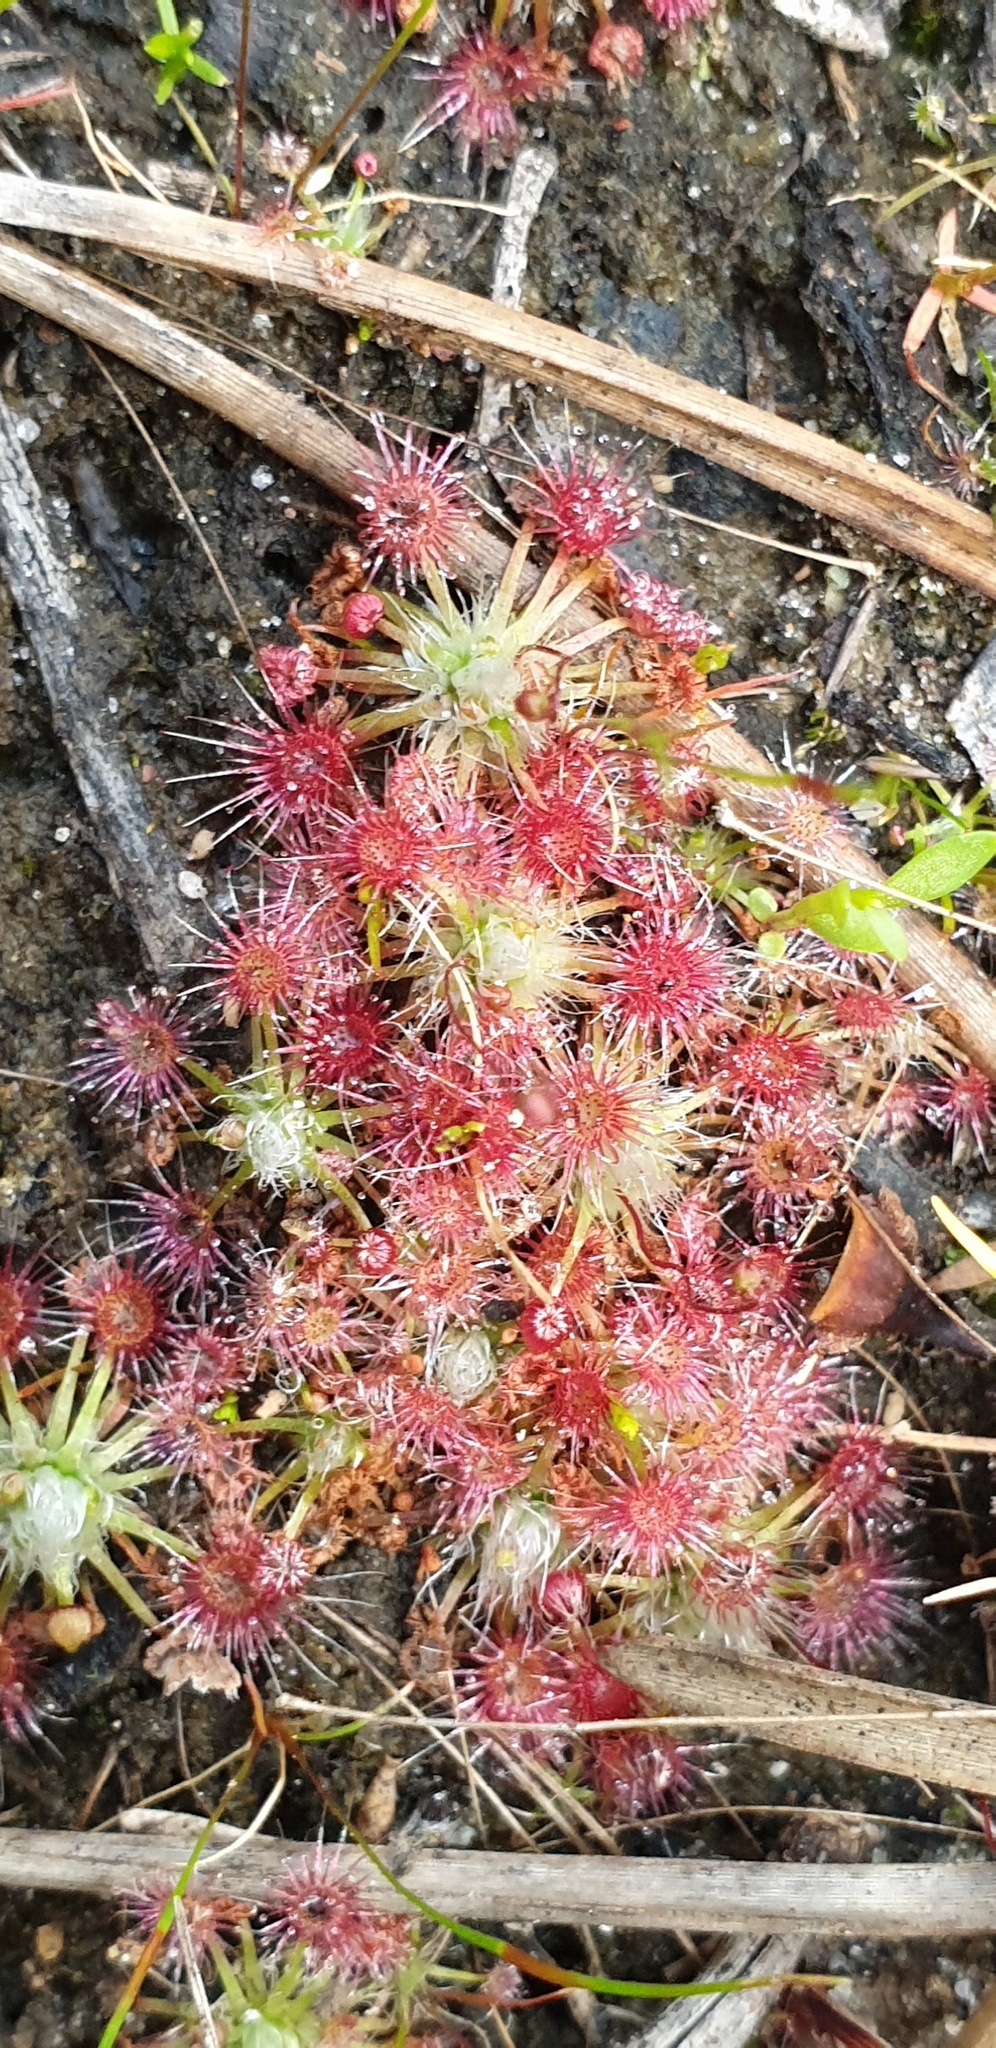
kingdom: Plantae
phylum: Tracheophyta
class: Magnoliopsida
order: Caryophyllales
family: Droseraceae
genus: Drosera
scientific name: Drosera pygmaea
